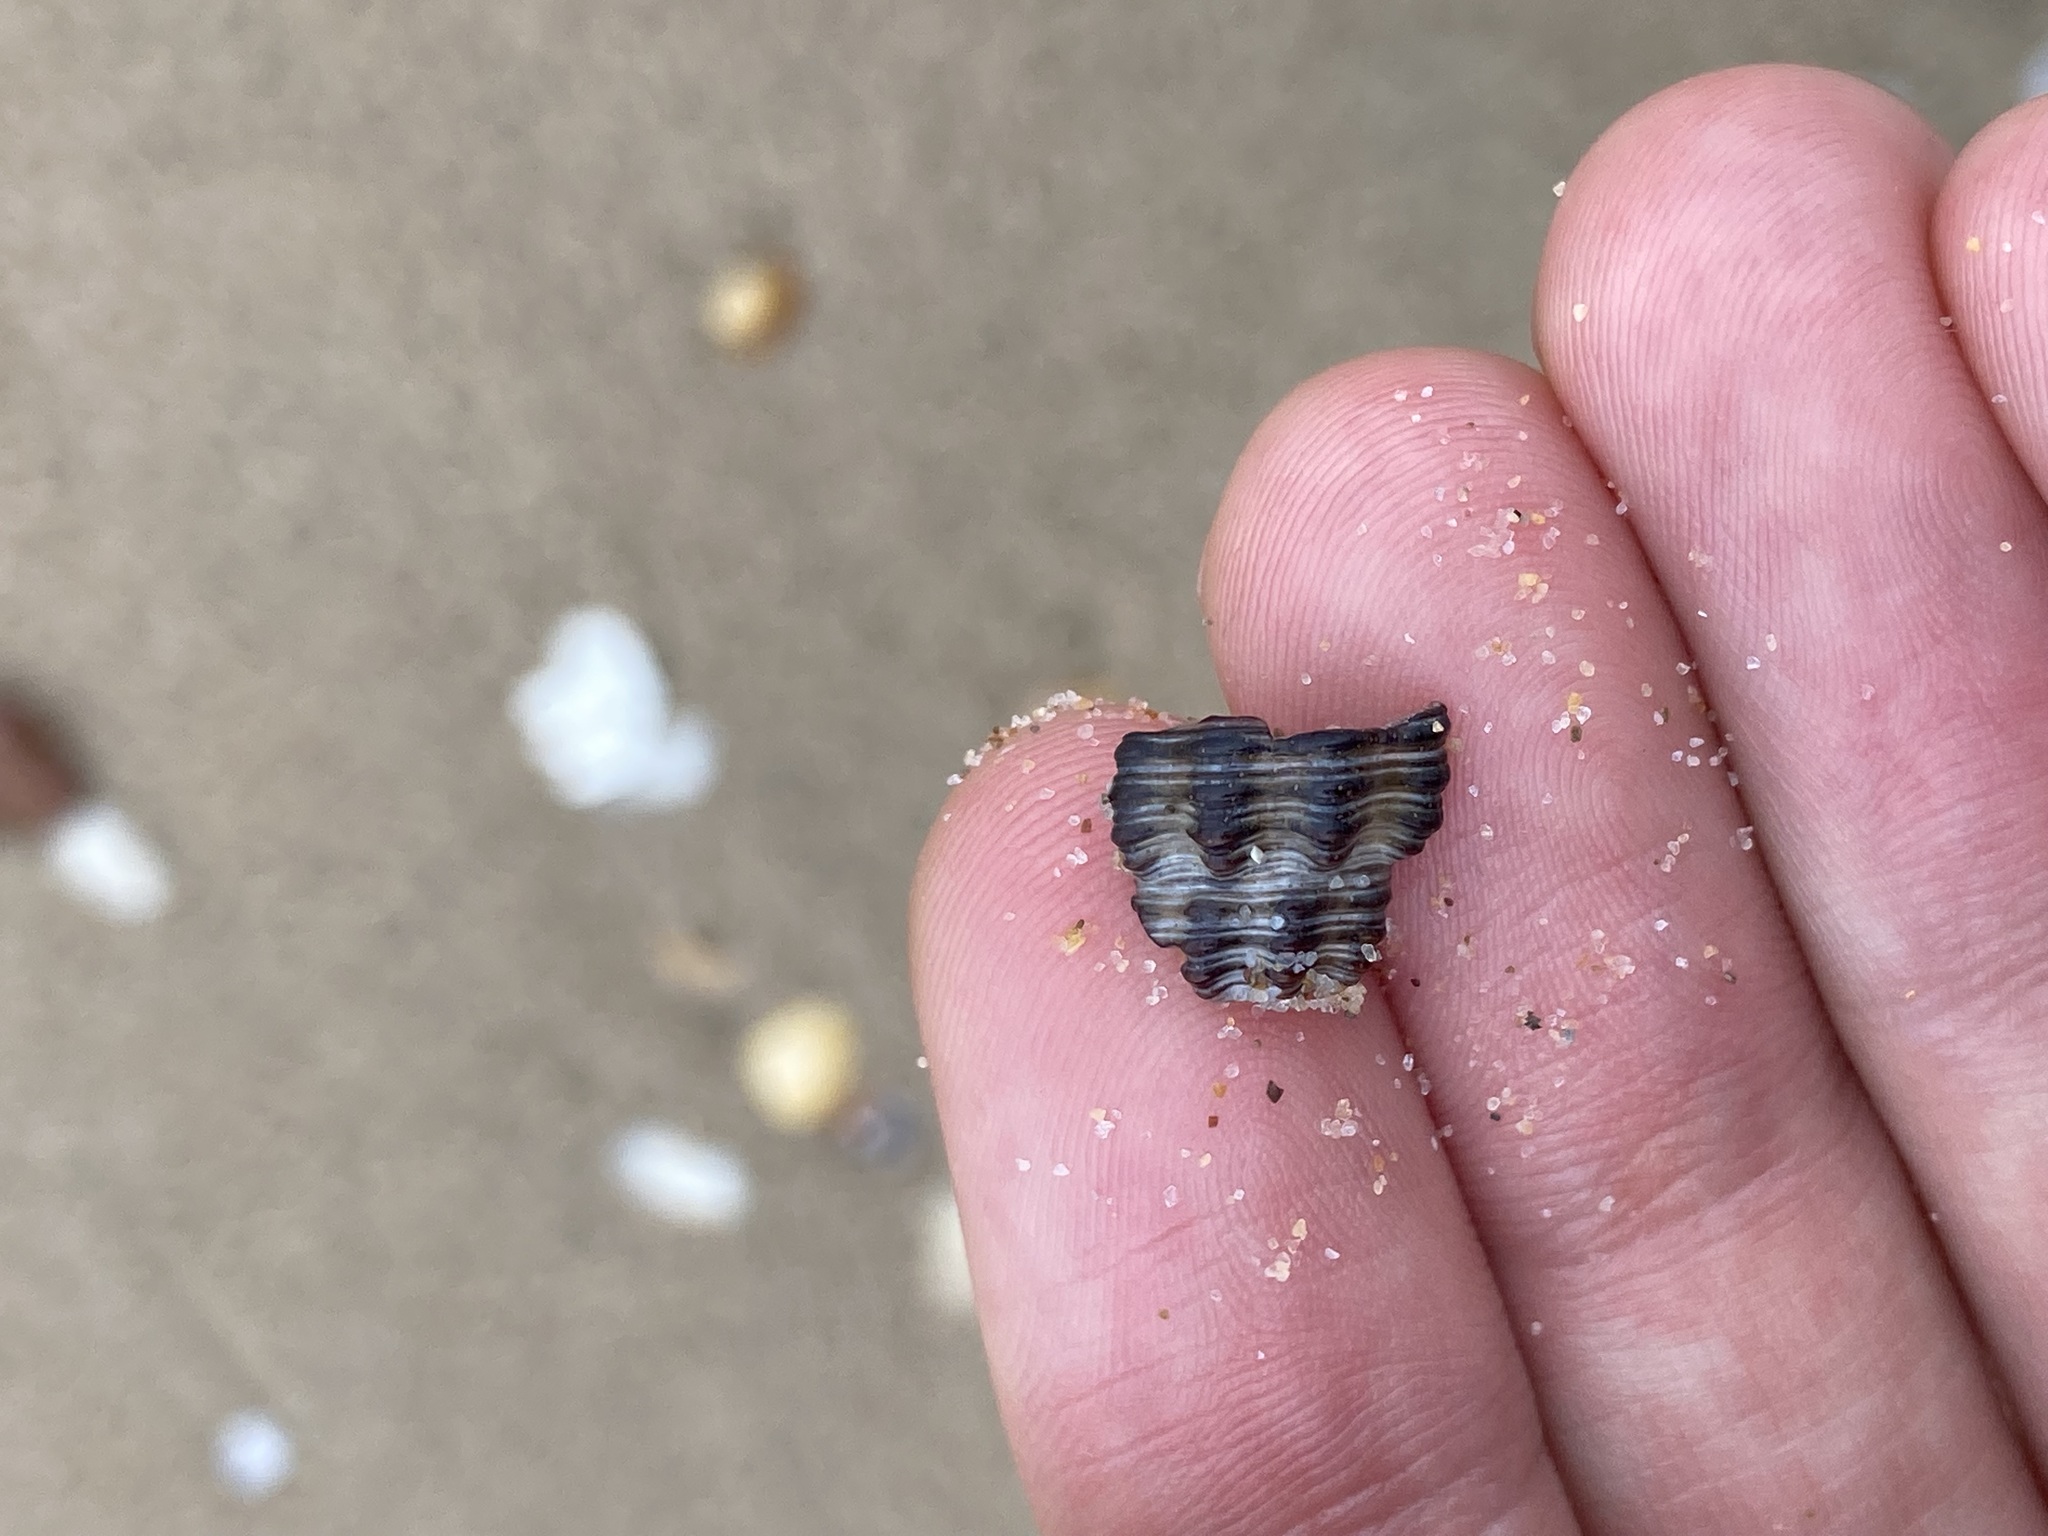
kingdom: Animalia
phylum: Mollusca
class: Gastropoda
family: Batillariidae
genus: Batillaria
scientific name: Batillaria australis
